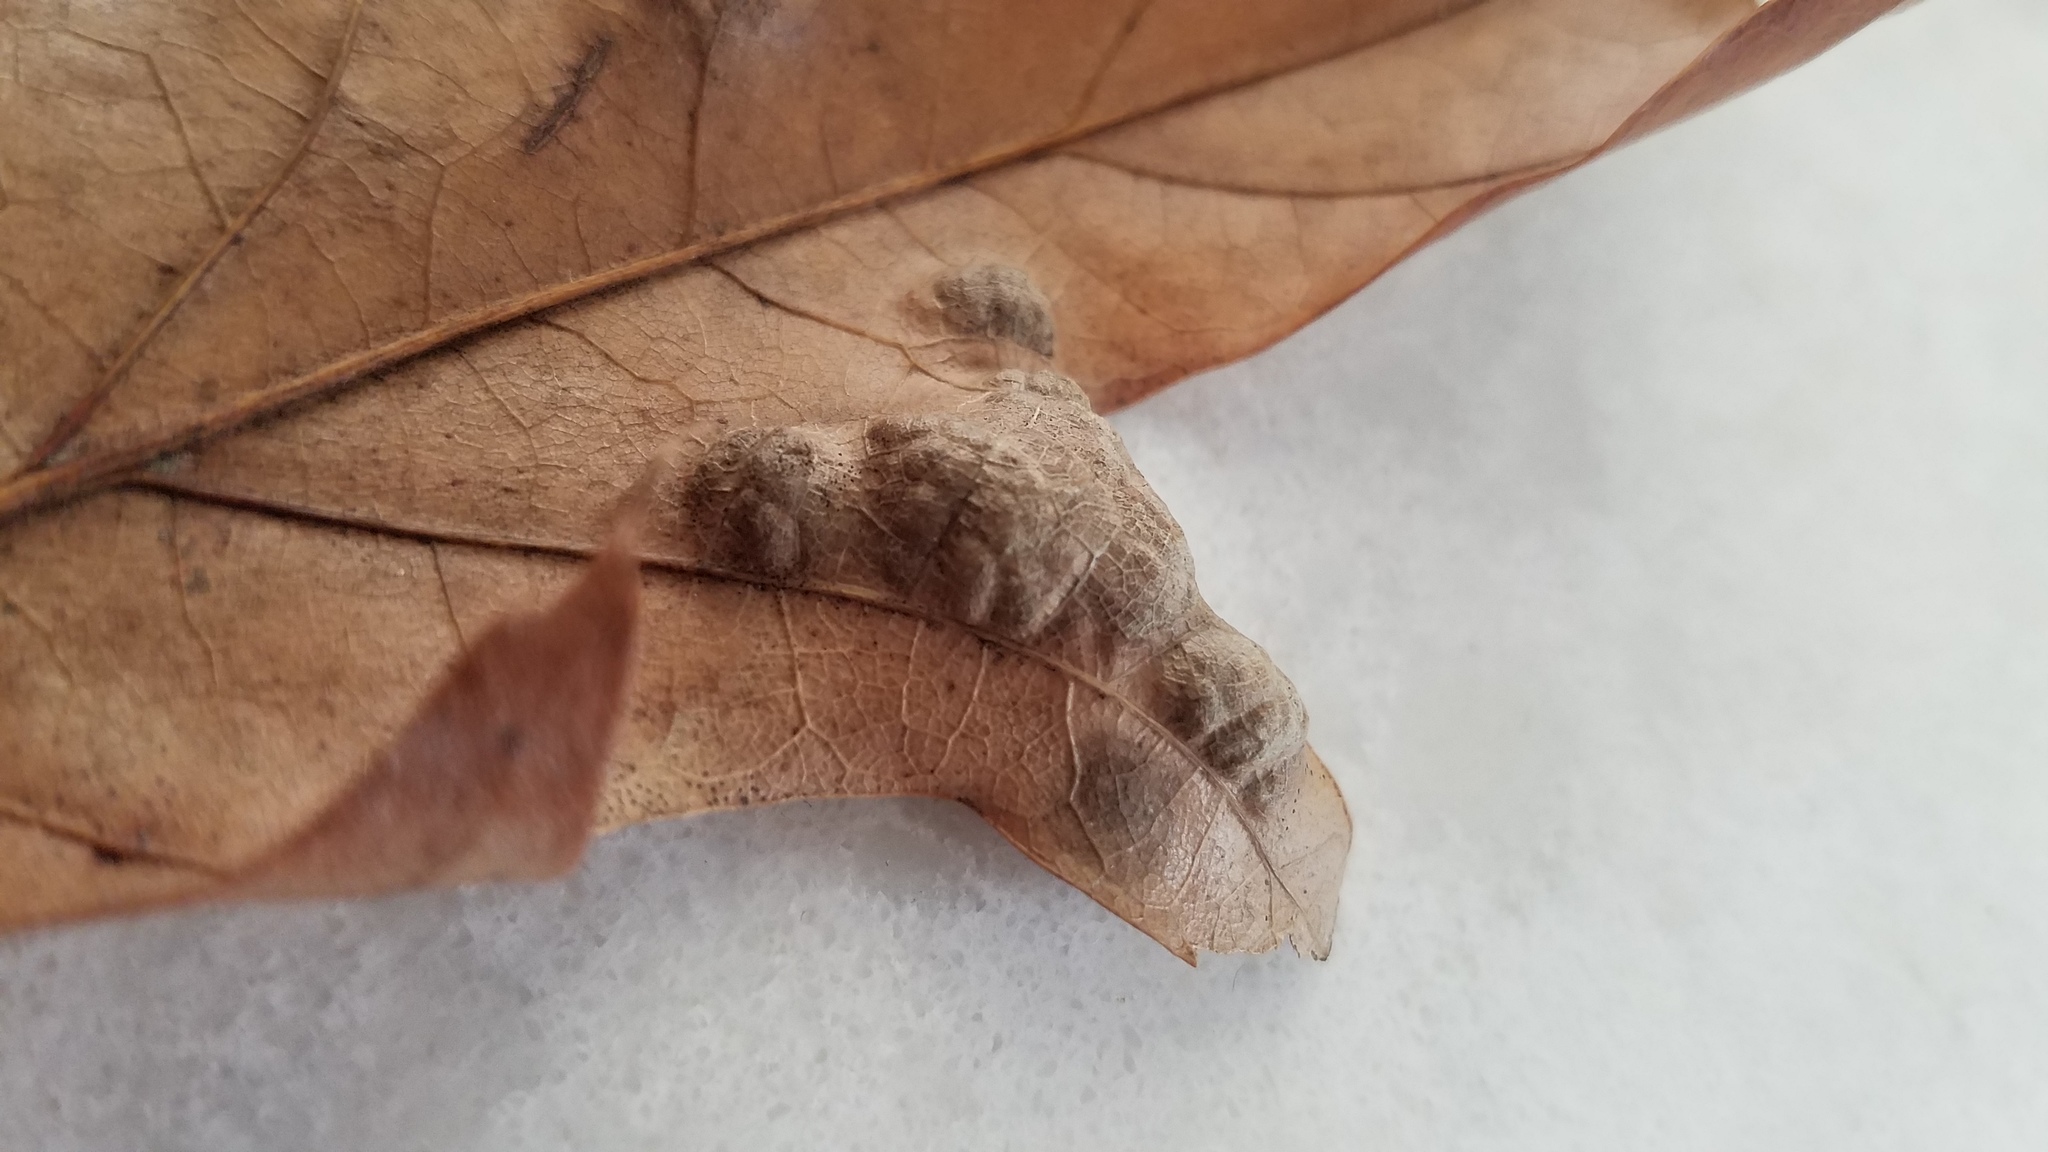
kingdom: Fungi
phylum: Ascomycota
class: Taphrinomycetes
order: Taphrinales
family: Taphrinaceae
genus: Taphrina
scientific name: Taphrina caerulescens
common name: Oak leaf blister
